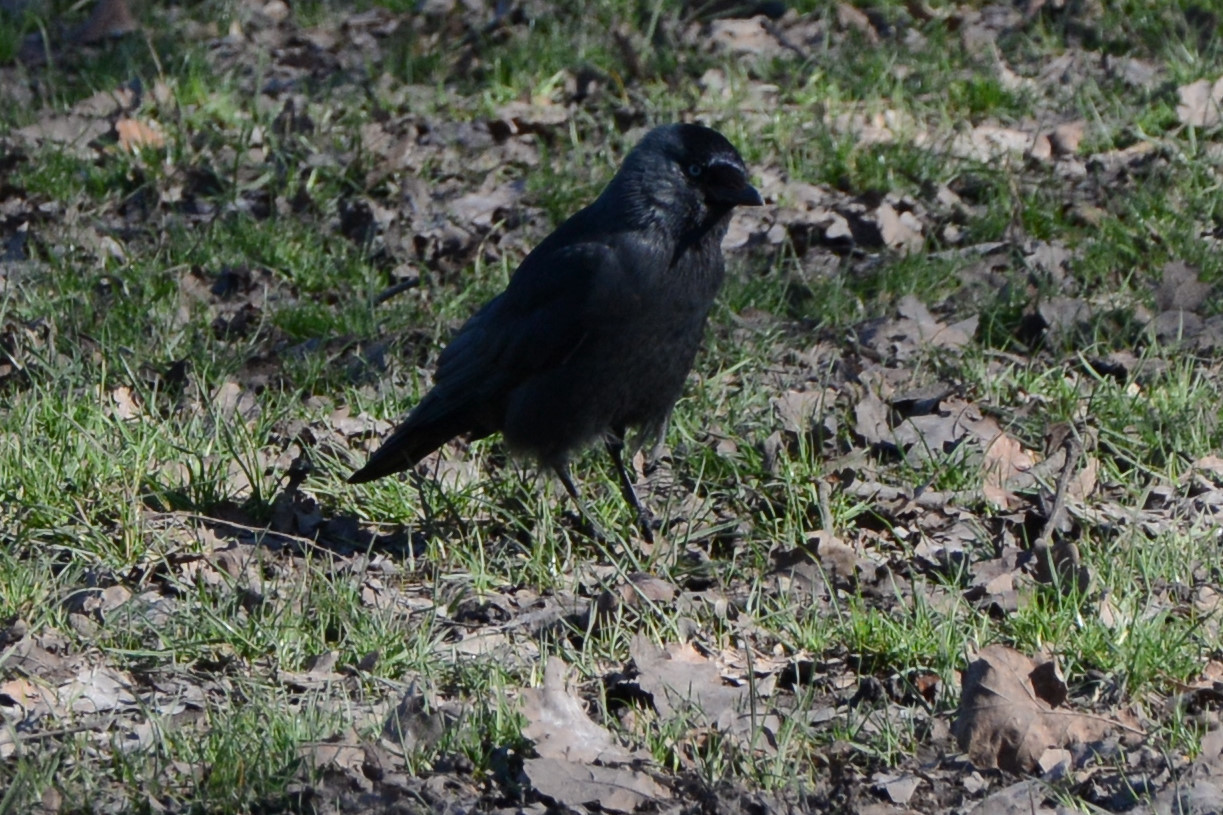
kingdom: Animalia
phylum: Chordata
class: Aves
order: Passeriformes
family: Corvidae
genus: Coloeus
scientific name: Coloeus monedula
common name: Western jackdaw
